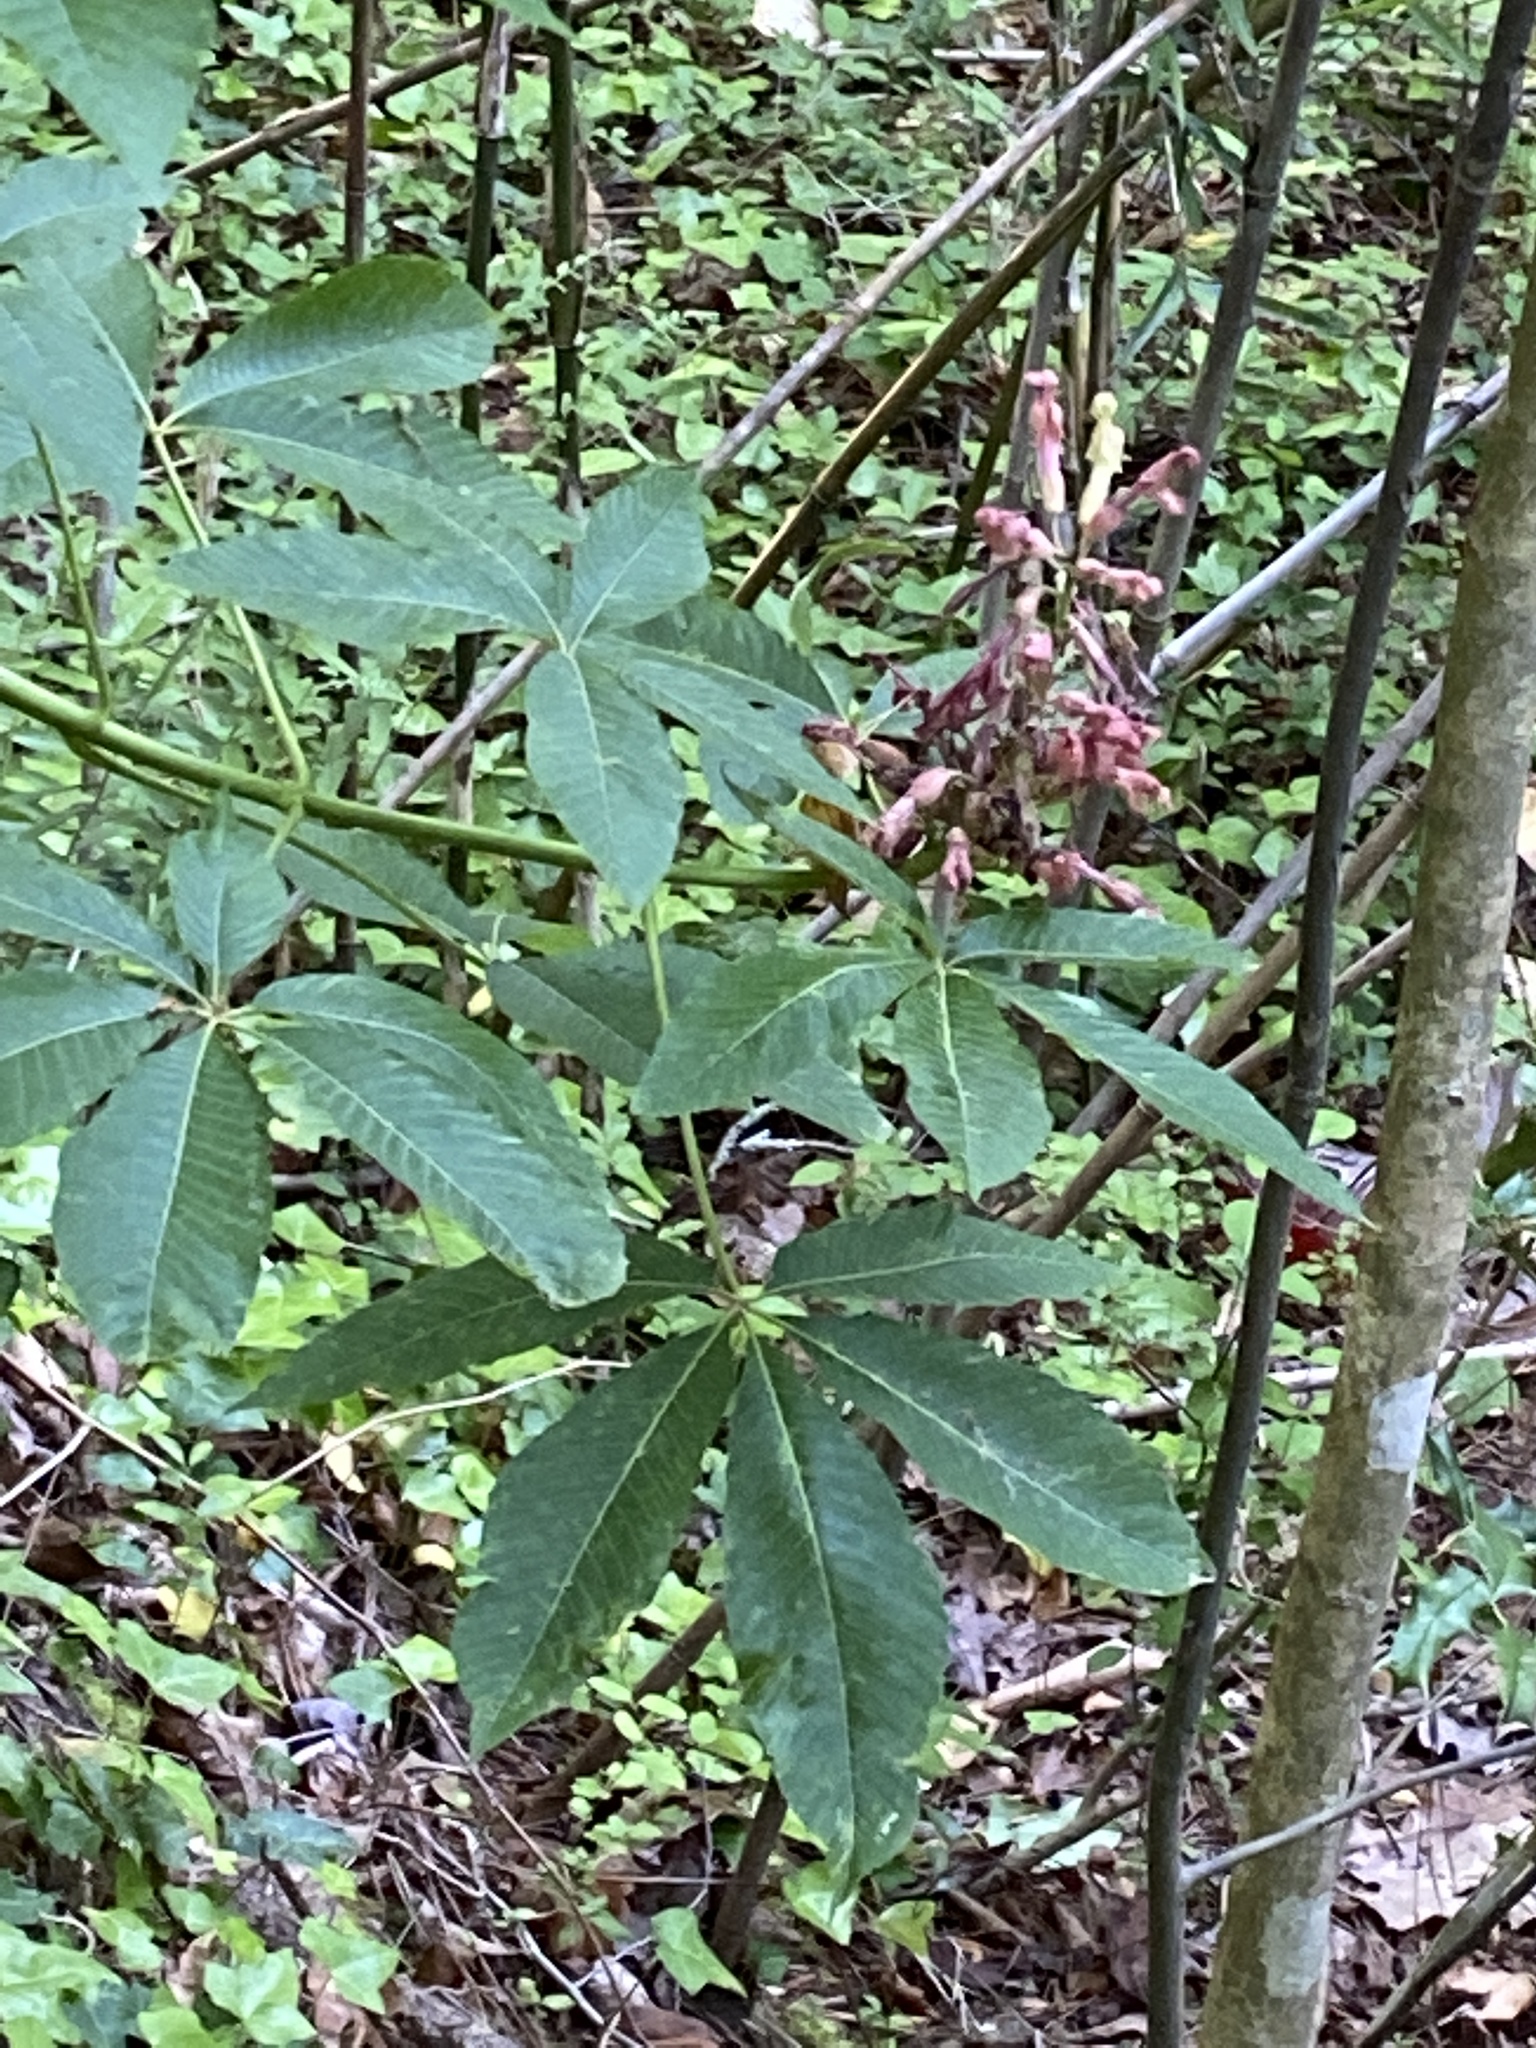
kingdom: Plantae
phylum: Tracheophyta
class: Magnoliopsida
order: Sapindales
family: Sapindaceae
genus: Aesculus
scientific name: Aesculus pavia
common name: Red buckeye
